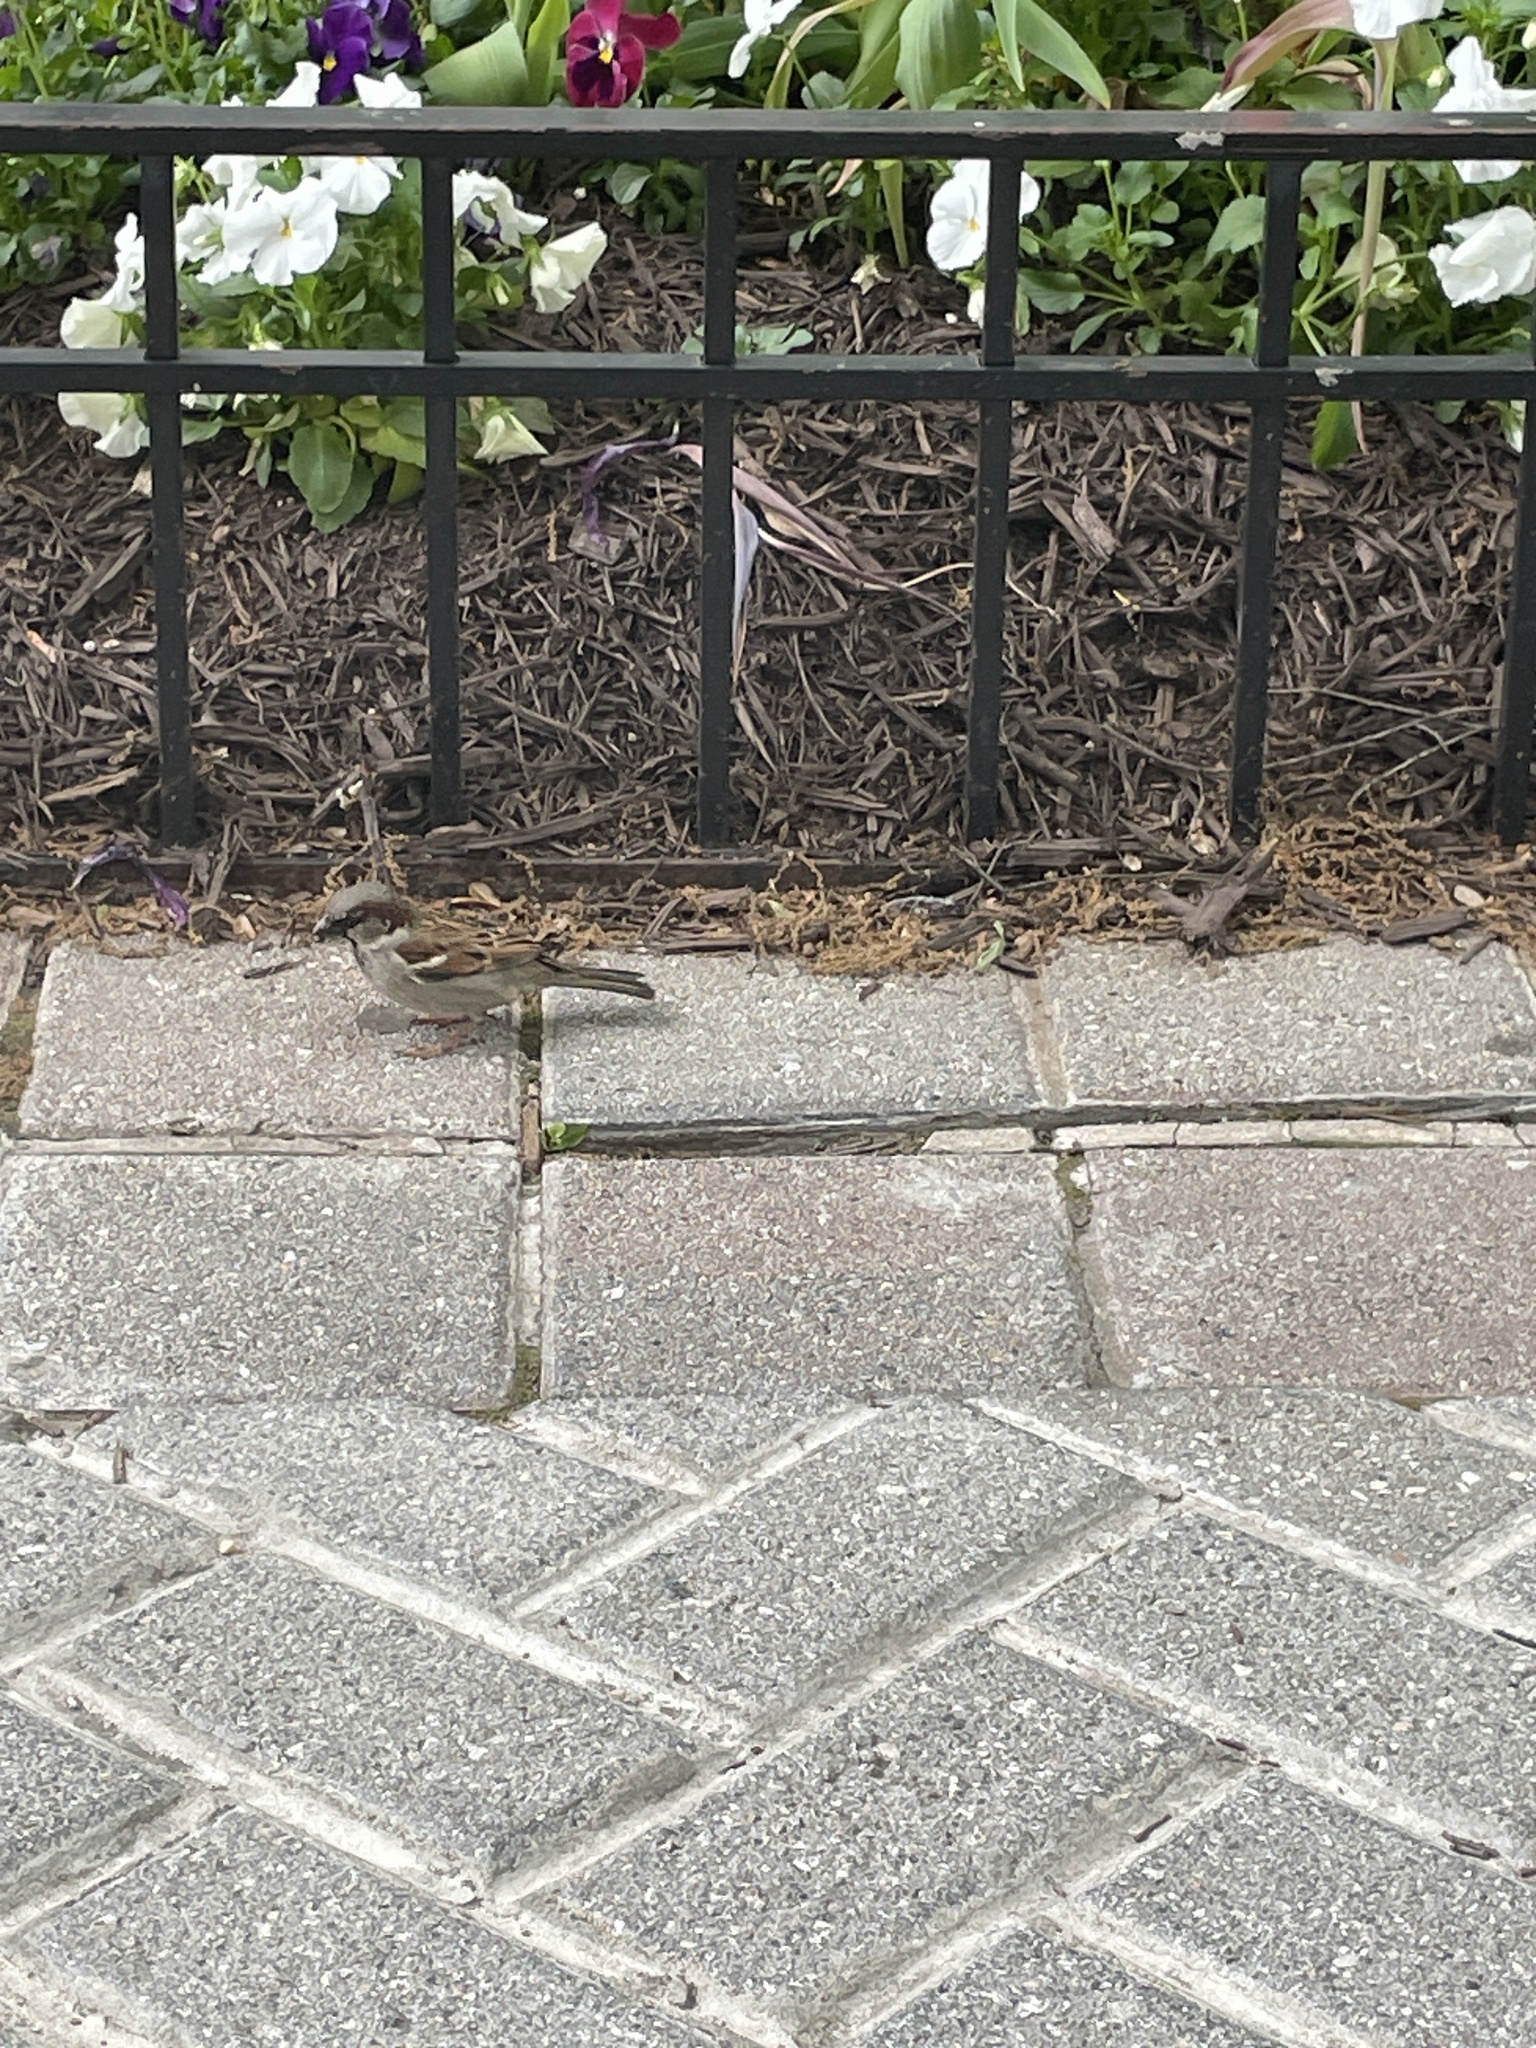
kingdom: Animalia
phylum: Chordata
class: Aves
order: Passeriformes
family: Passeridae
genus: Passer
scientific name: Passer domesticus
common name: House sparrow
